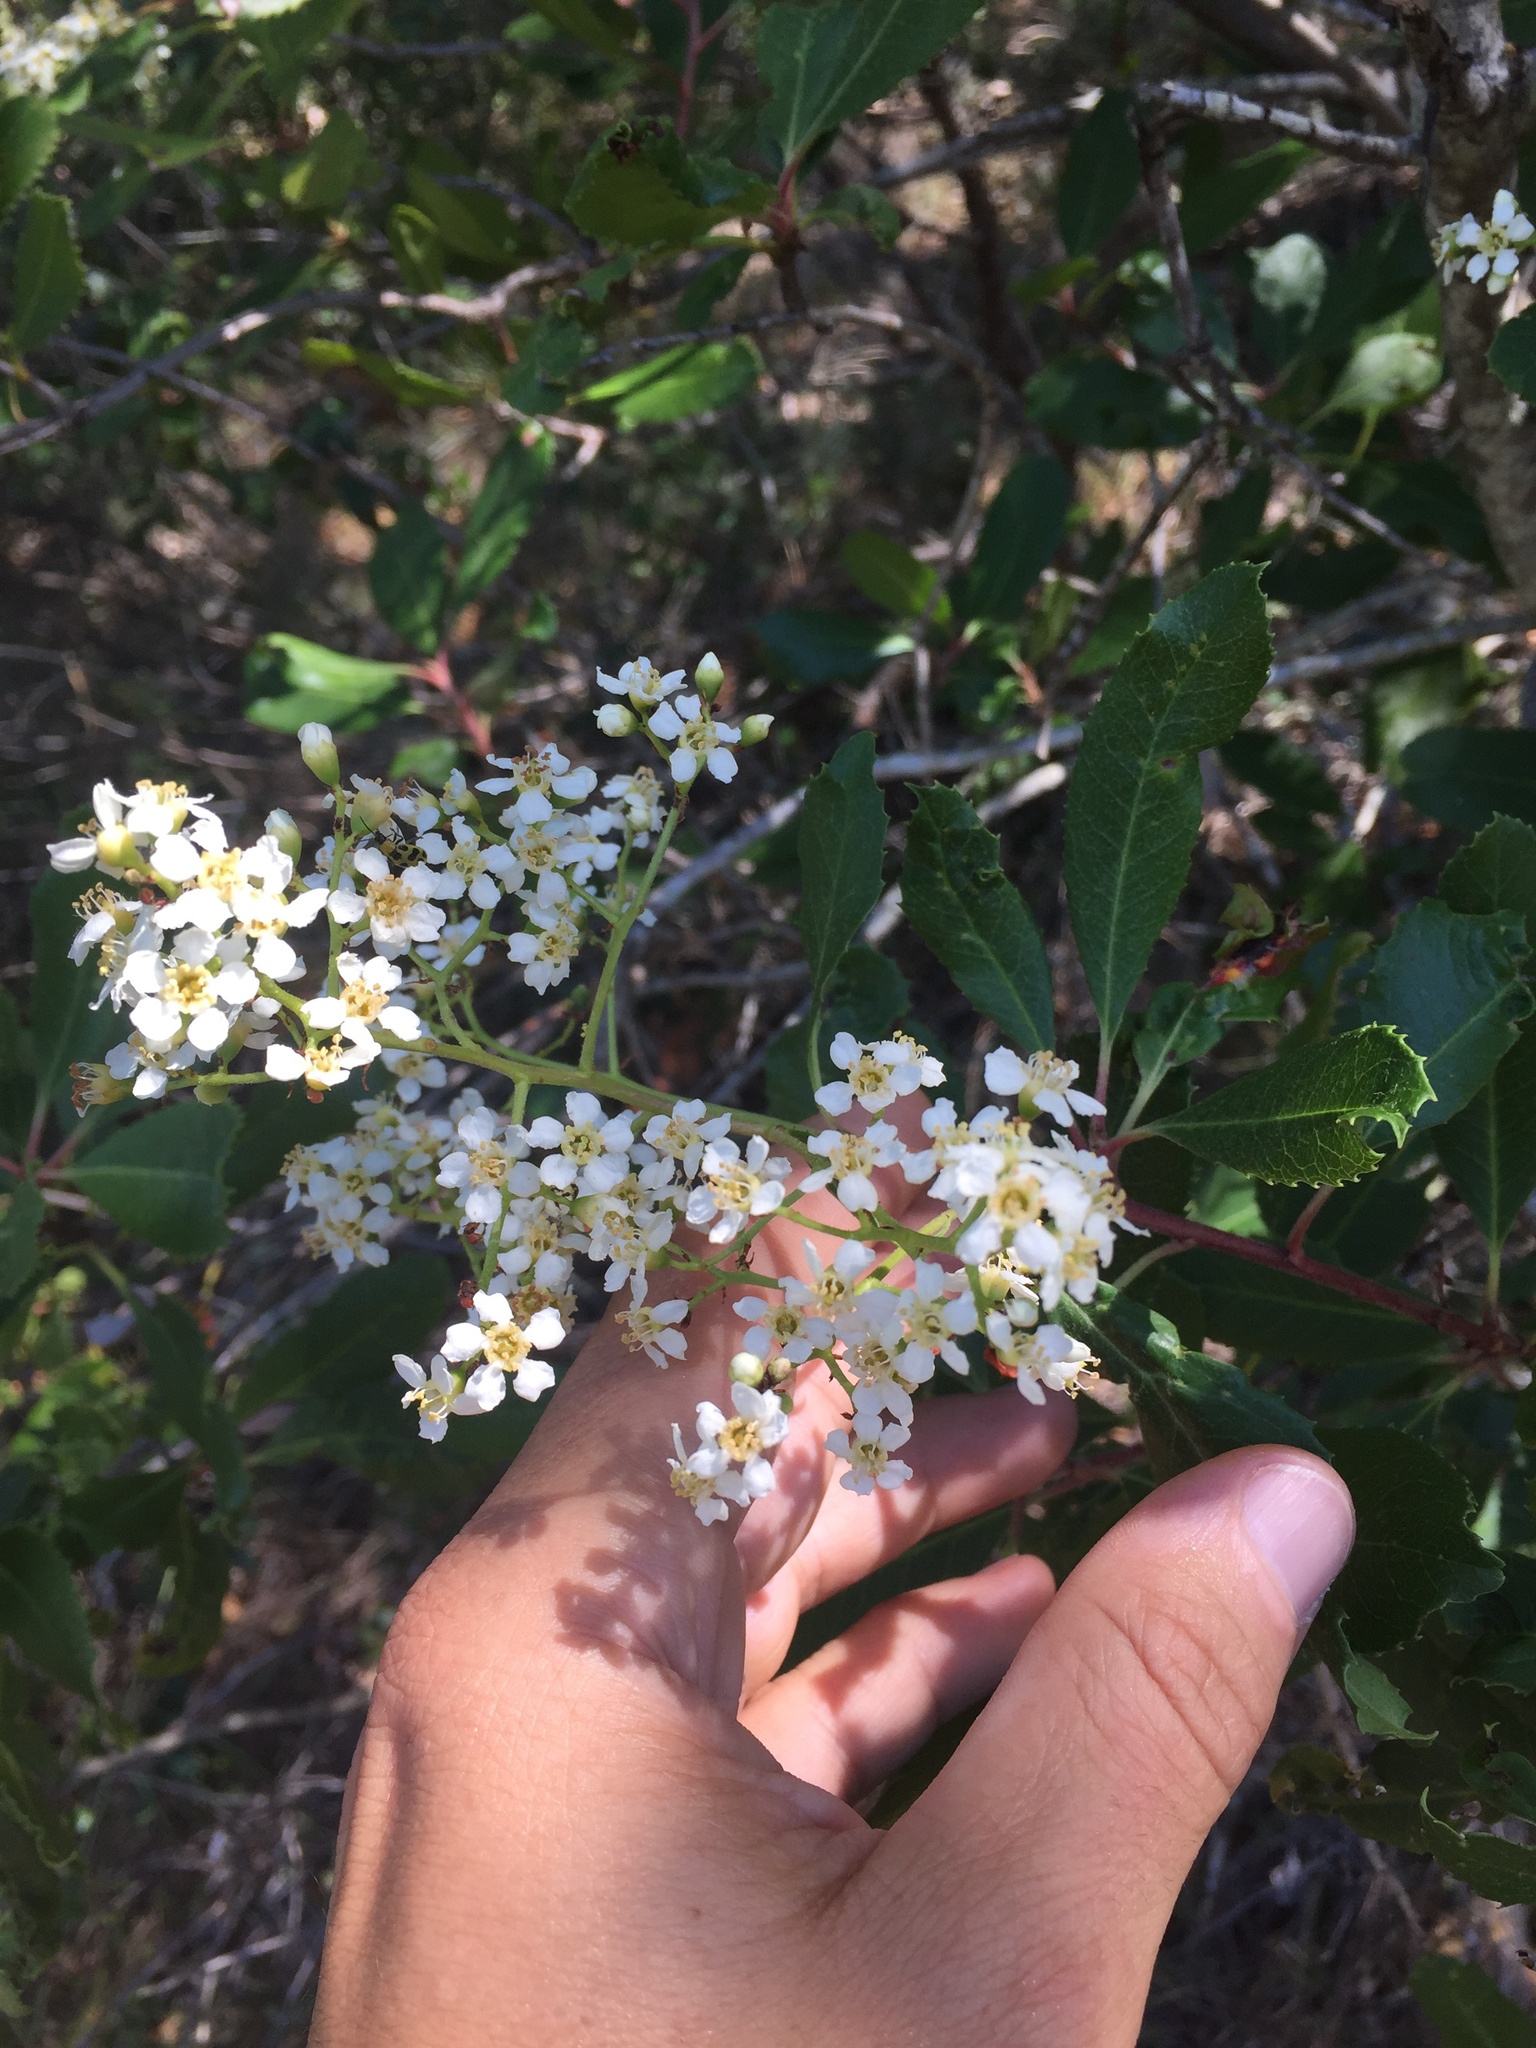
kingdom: Plantae
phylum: Tracheophyta
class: Magnoliopsida
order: Rosales
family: Rosaceae
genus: Heteromeles
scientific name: Heteromeles arbutifolia
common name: California-holly
